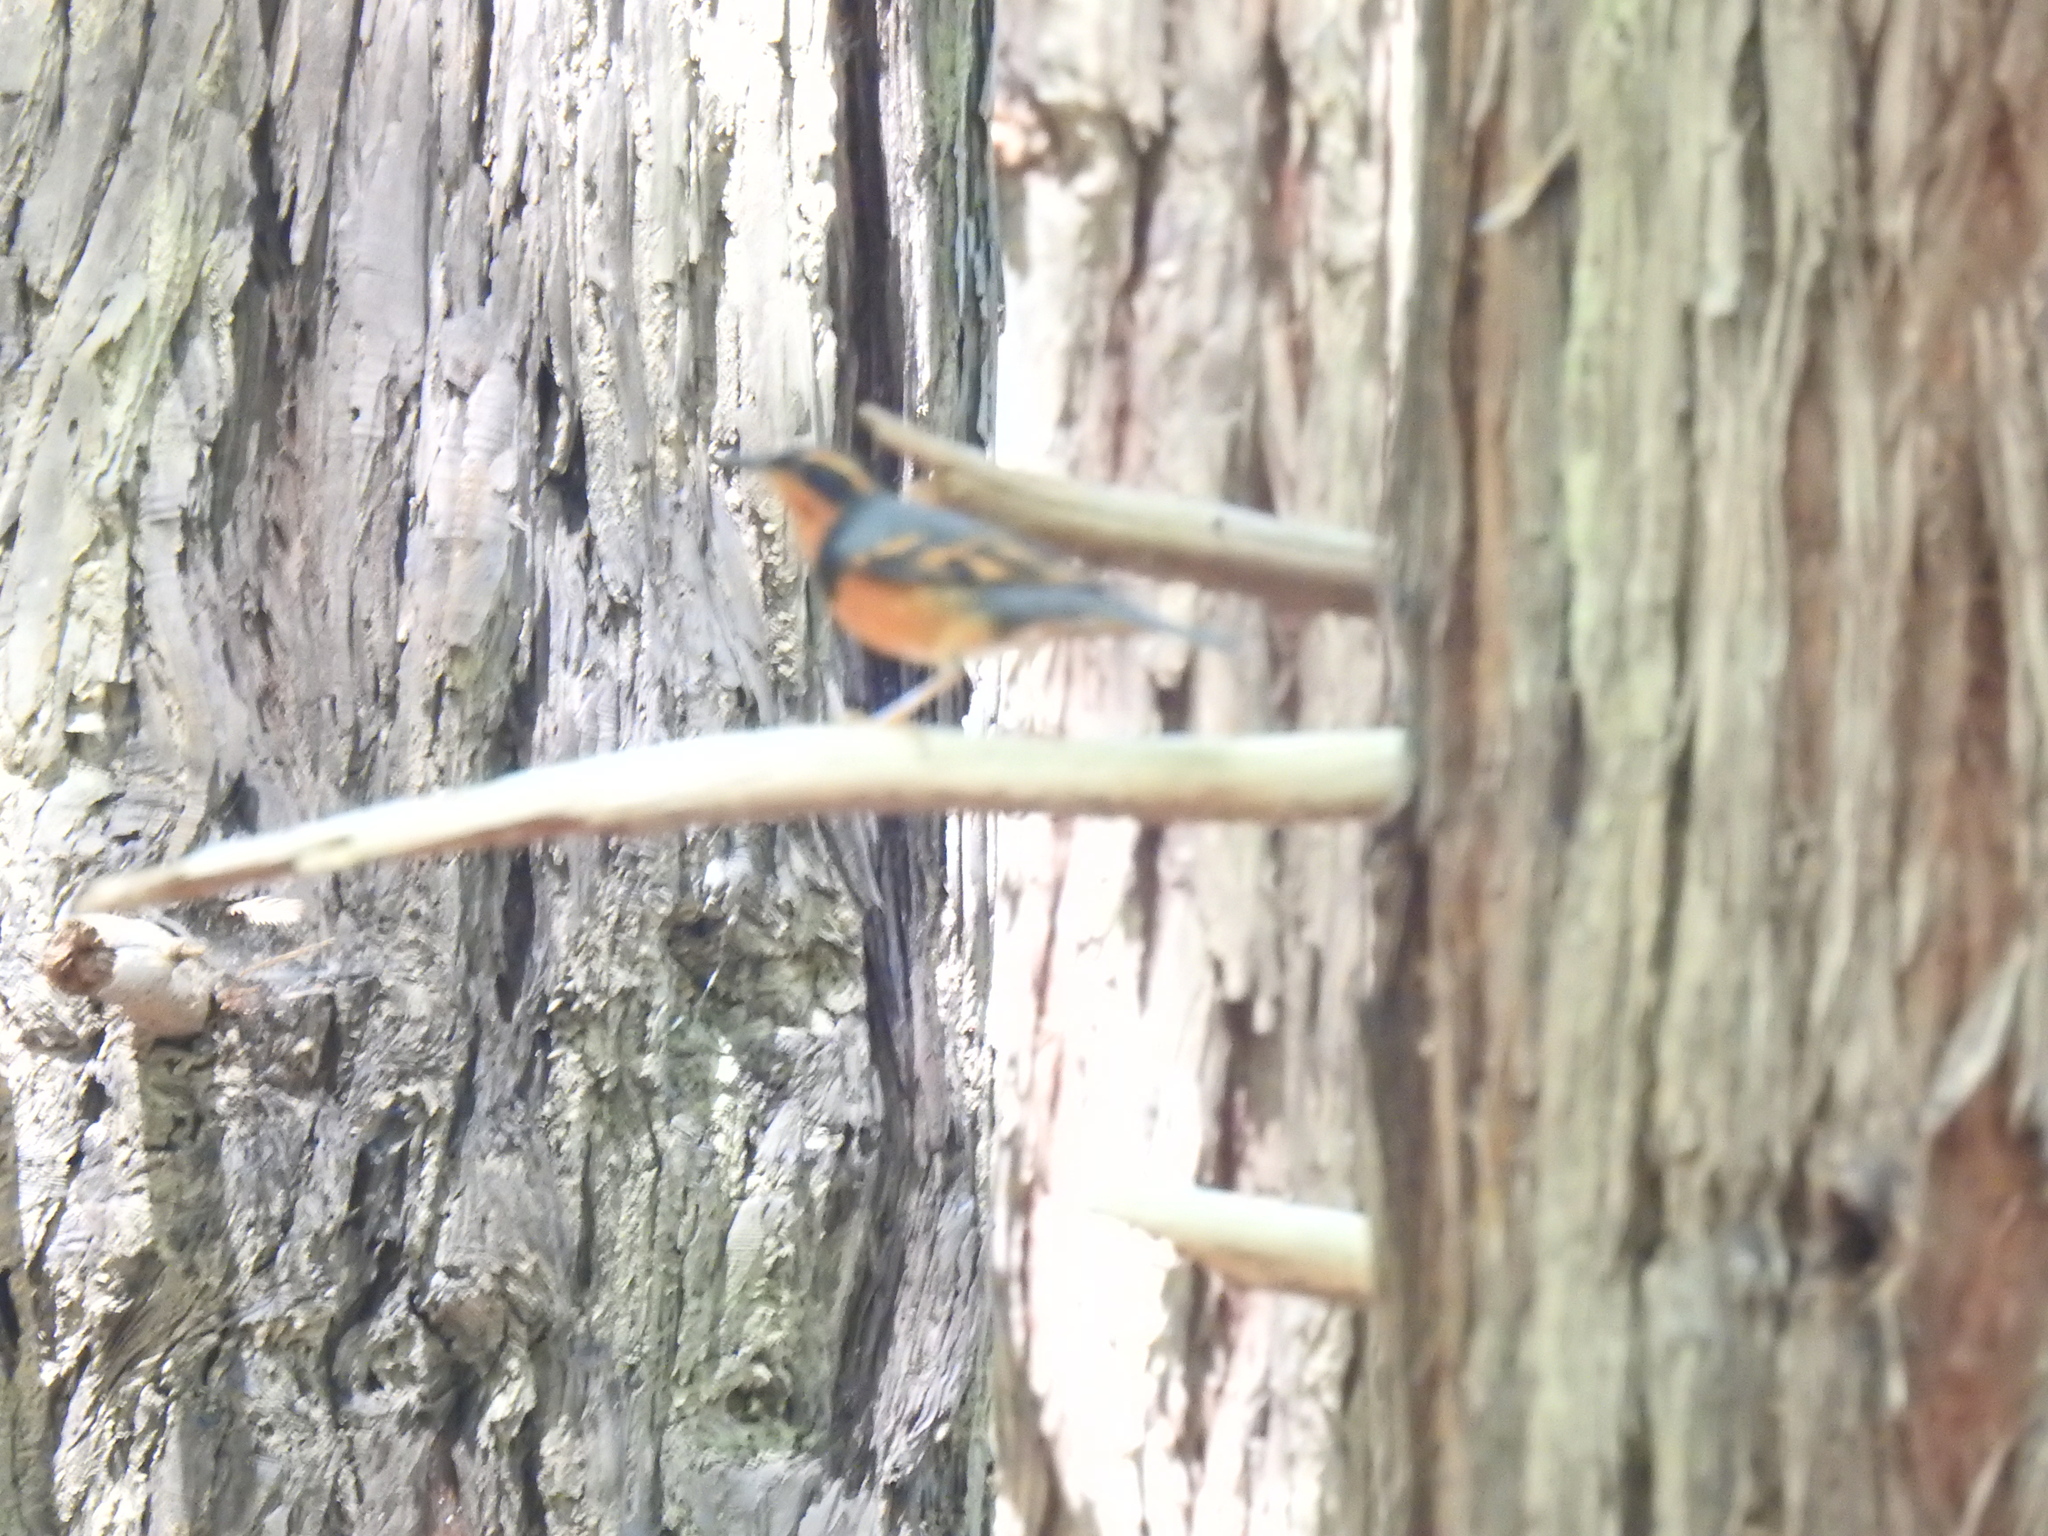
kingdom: Animalia
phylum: Chordata
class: Aves
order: Passeriformes
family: Turdidae
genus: Ixoreus
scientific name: Ixoreus naevius
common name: Varied thrush
